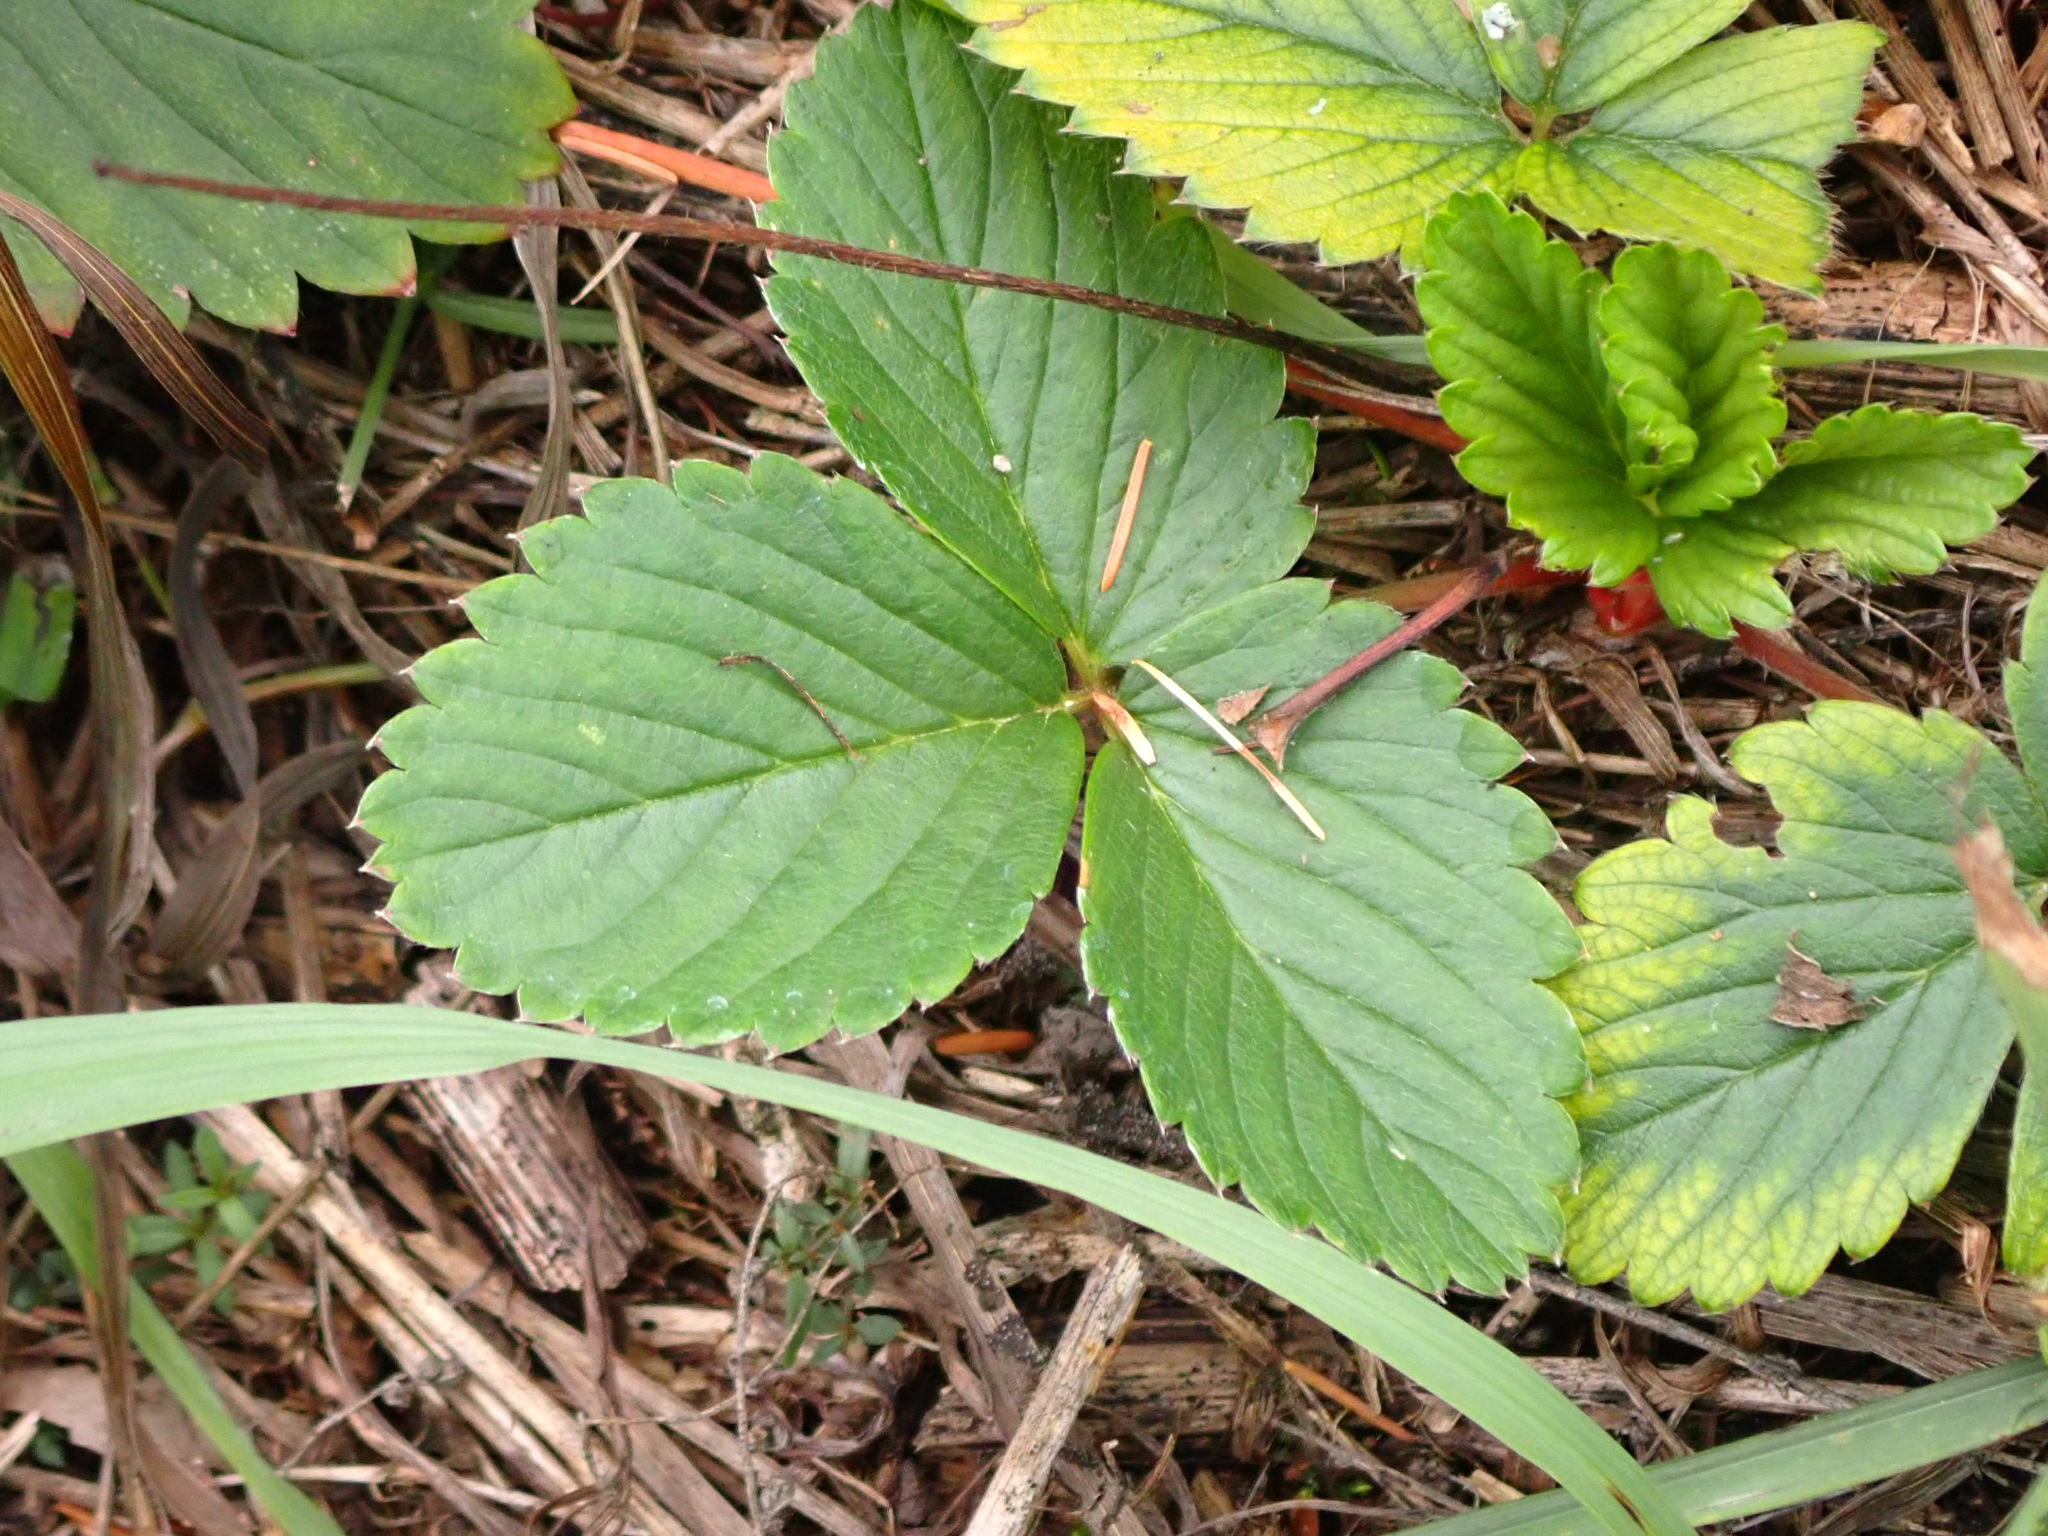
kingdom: Plantae
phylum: Tracheophyta
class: Magnoliopsida
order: Rosales
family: Rosaceae
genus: Fragaria
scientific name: Fragaria virginiana
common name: Thickleaved wild strawberry
